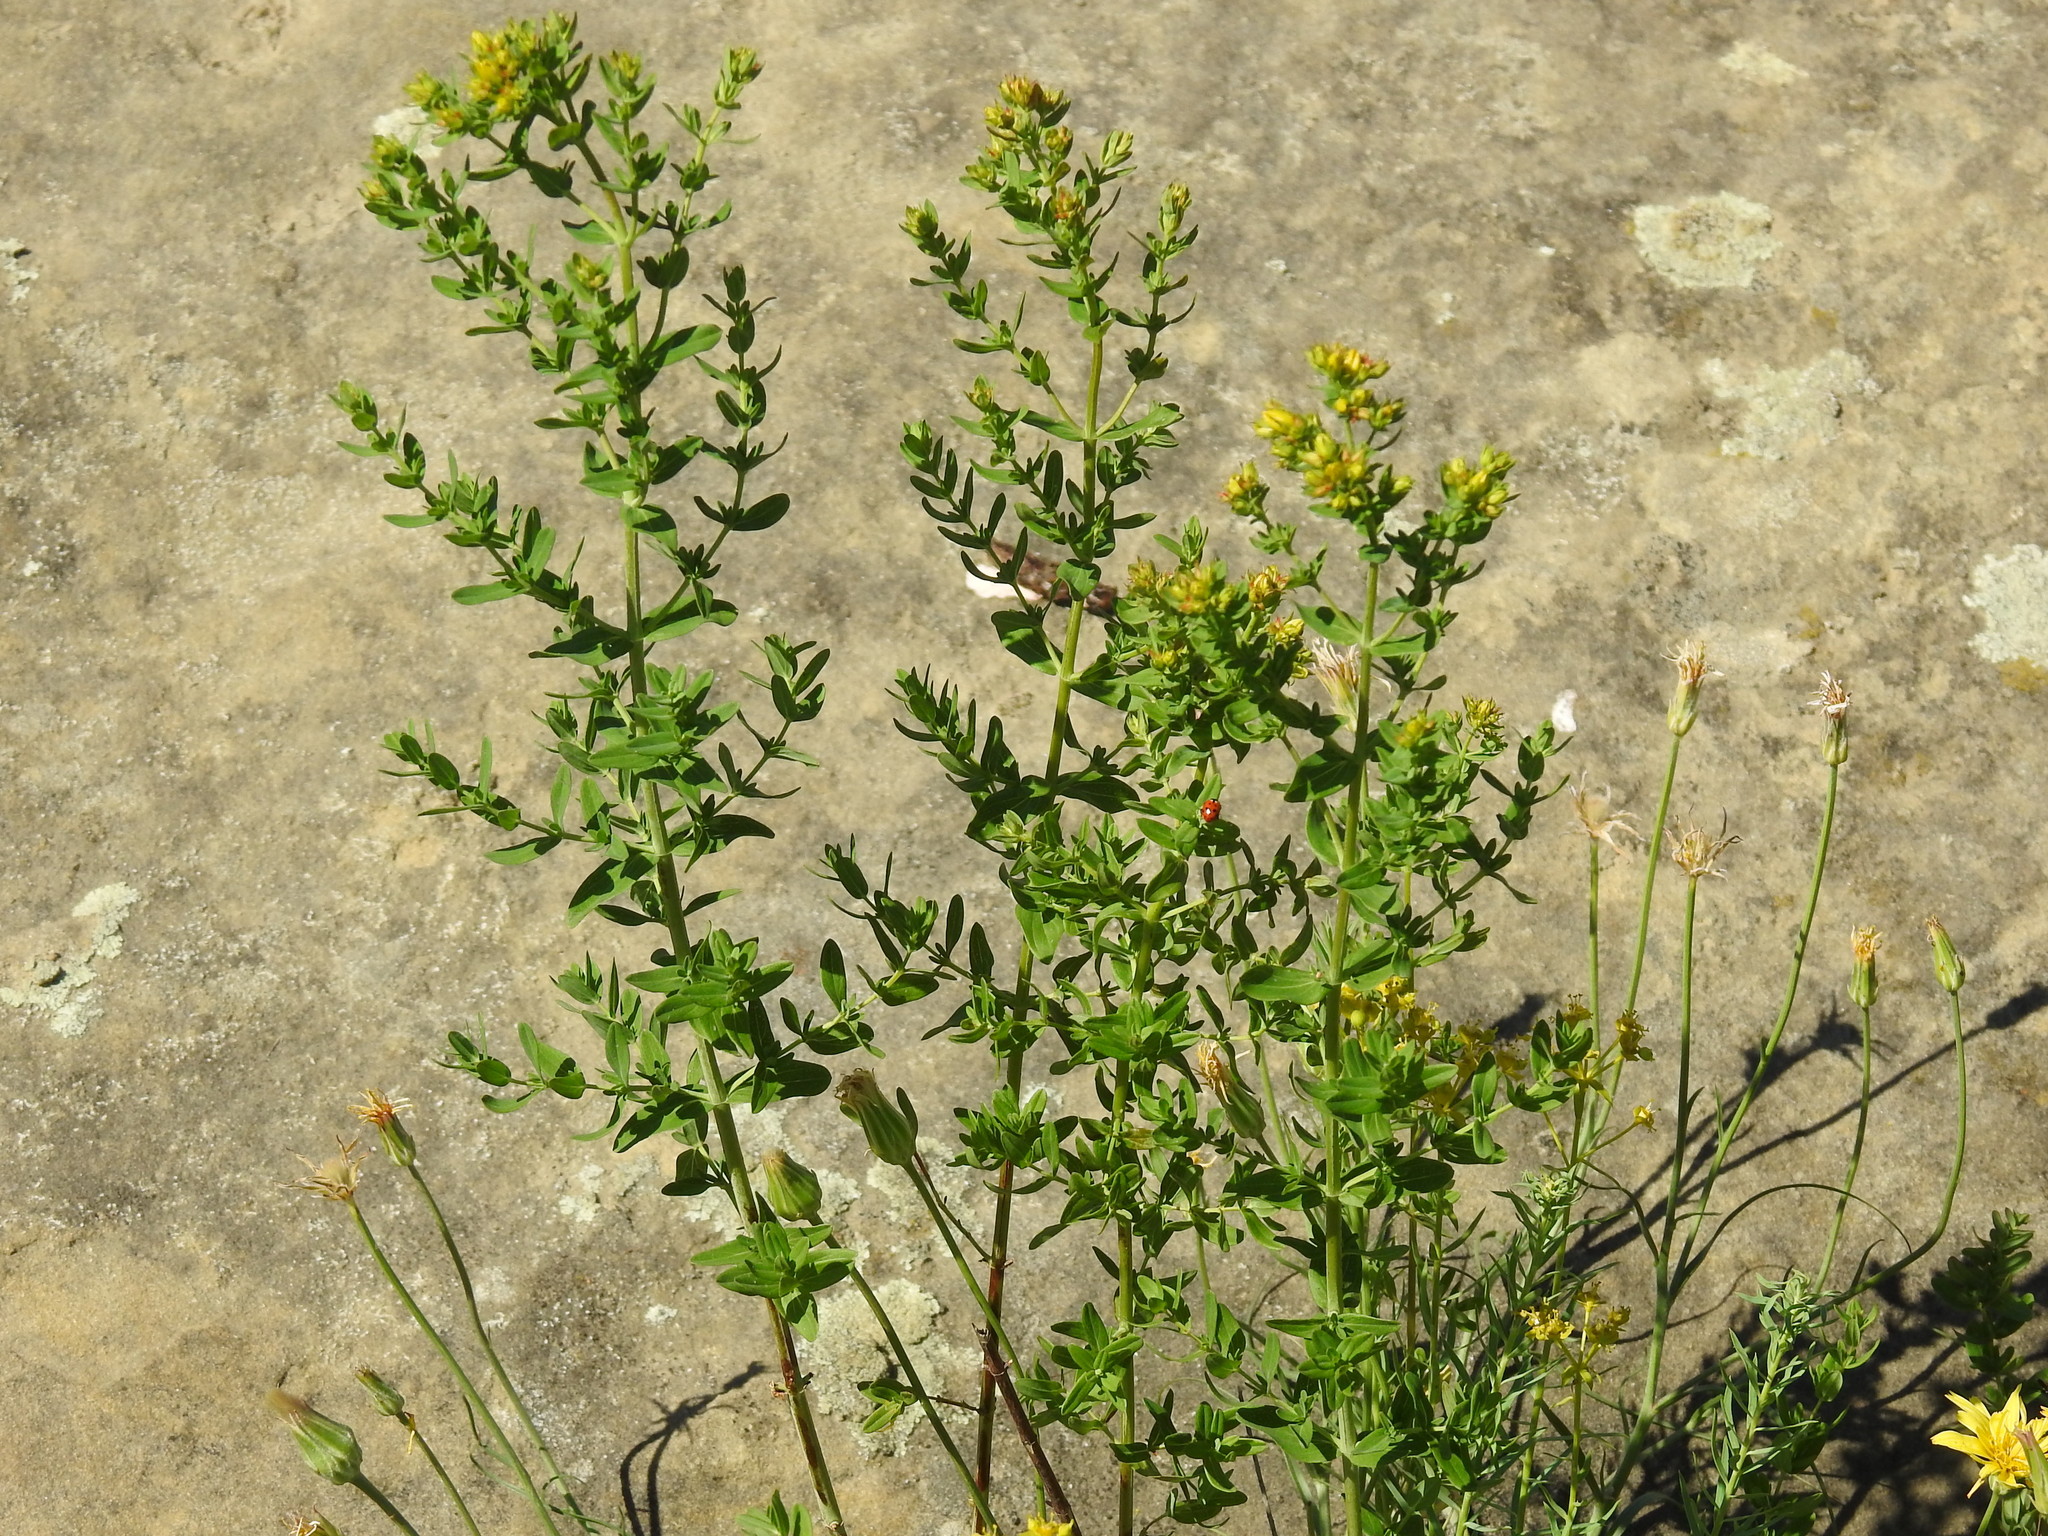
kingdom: Plantae
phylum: Tracheophyta
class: Magnoliopsida
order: Malpighiales
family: Hypericaceae
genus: Hypericum
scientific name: Hypericum perforatum
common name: Common st. johnswort
